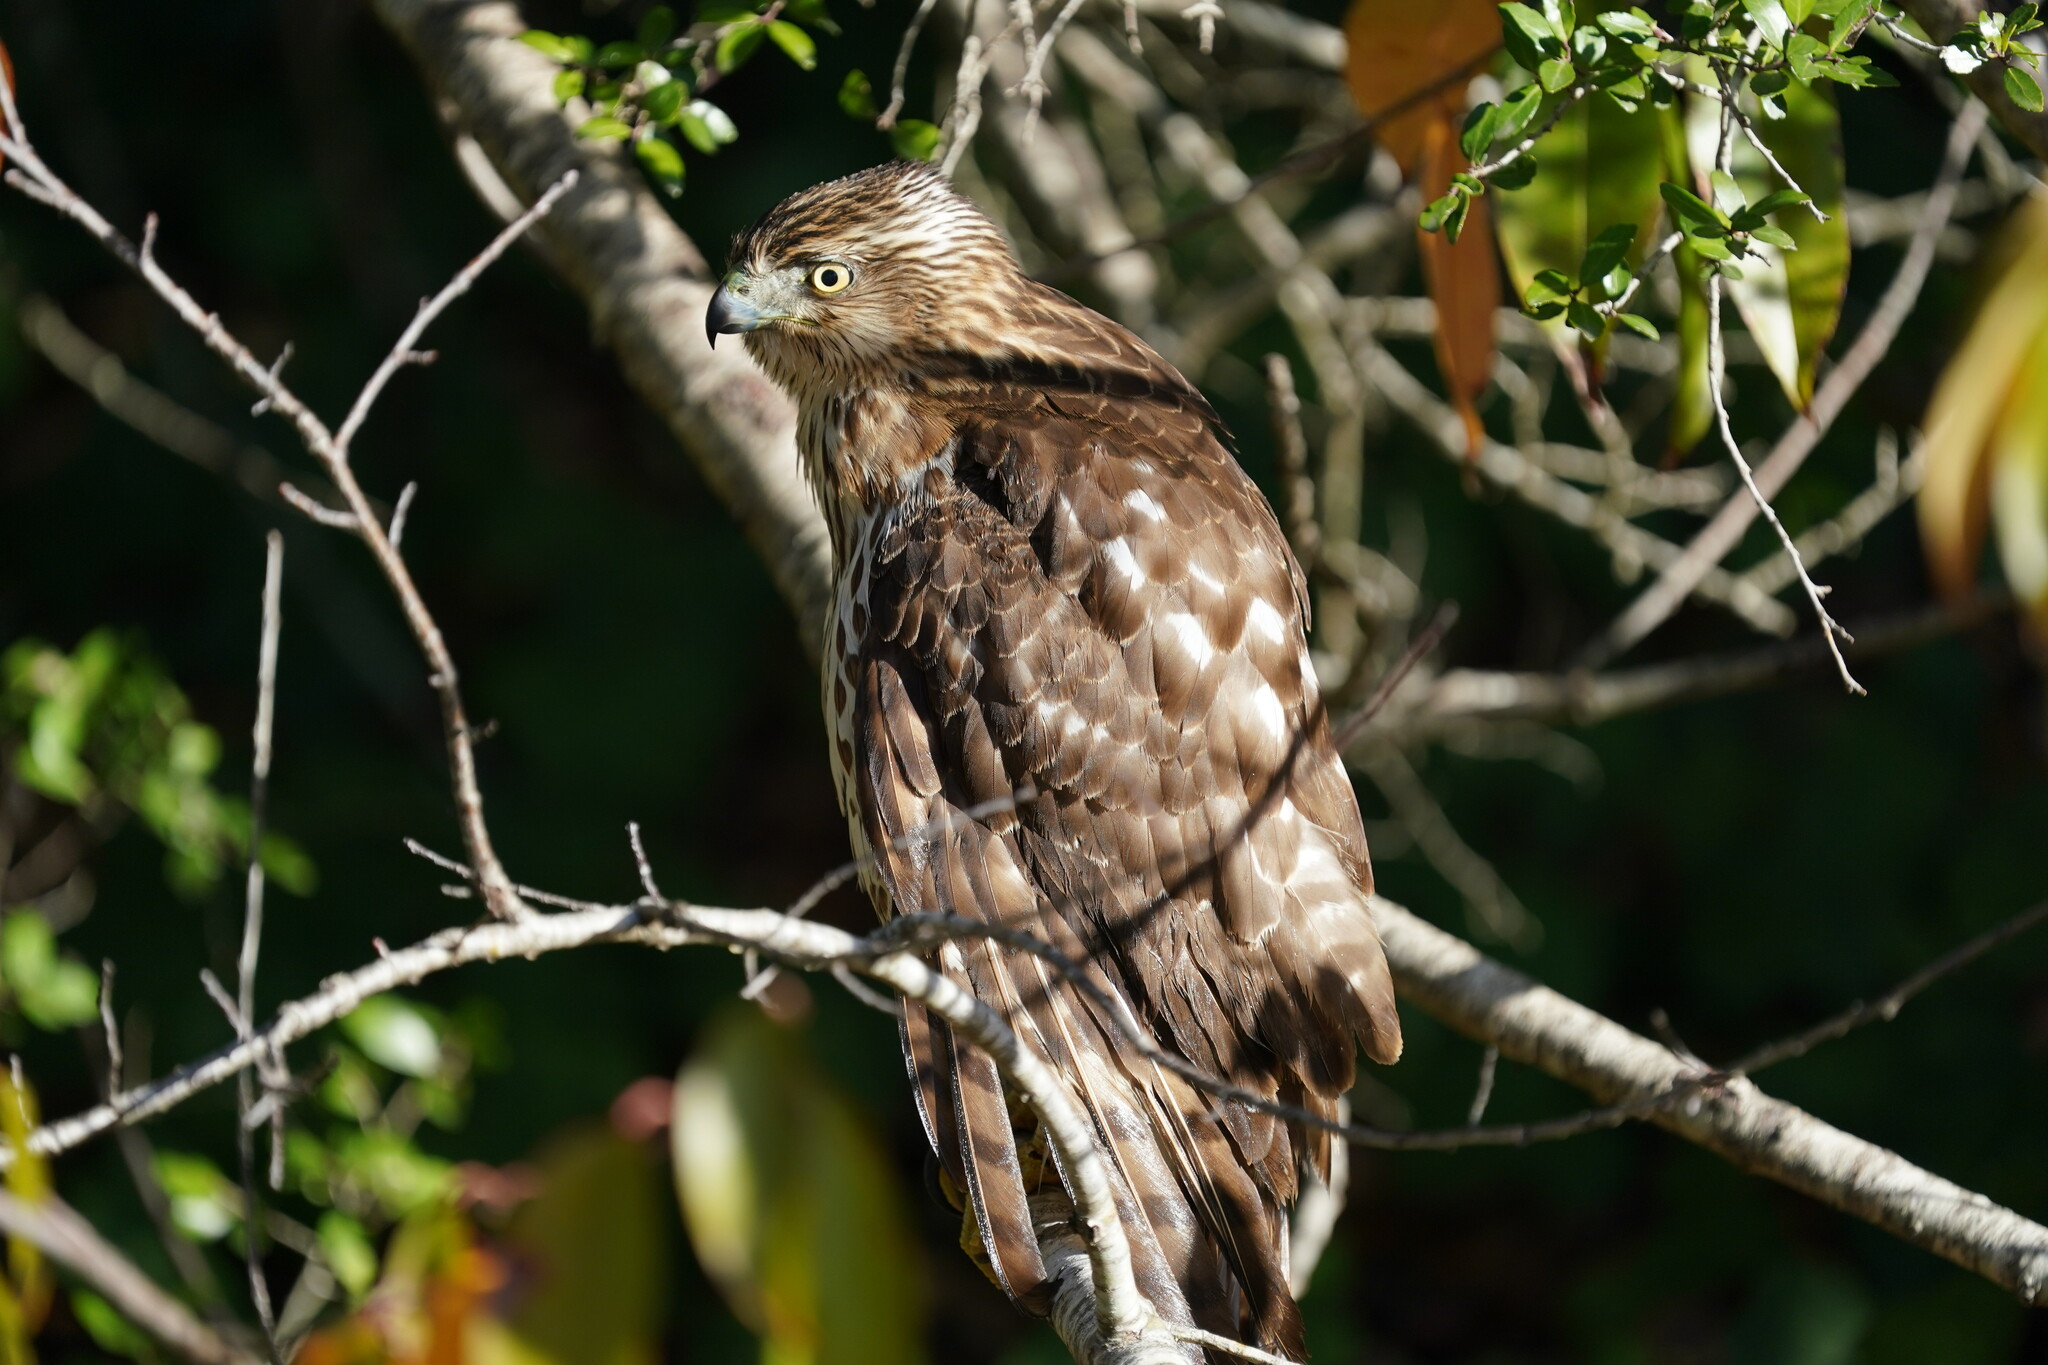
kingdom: Animalia
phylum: Chordata
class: Aves
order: Accipitriformes
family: Accipitridae
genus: Accipiter
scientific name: Accipiter cooperii
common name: Cooper's hawk
